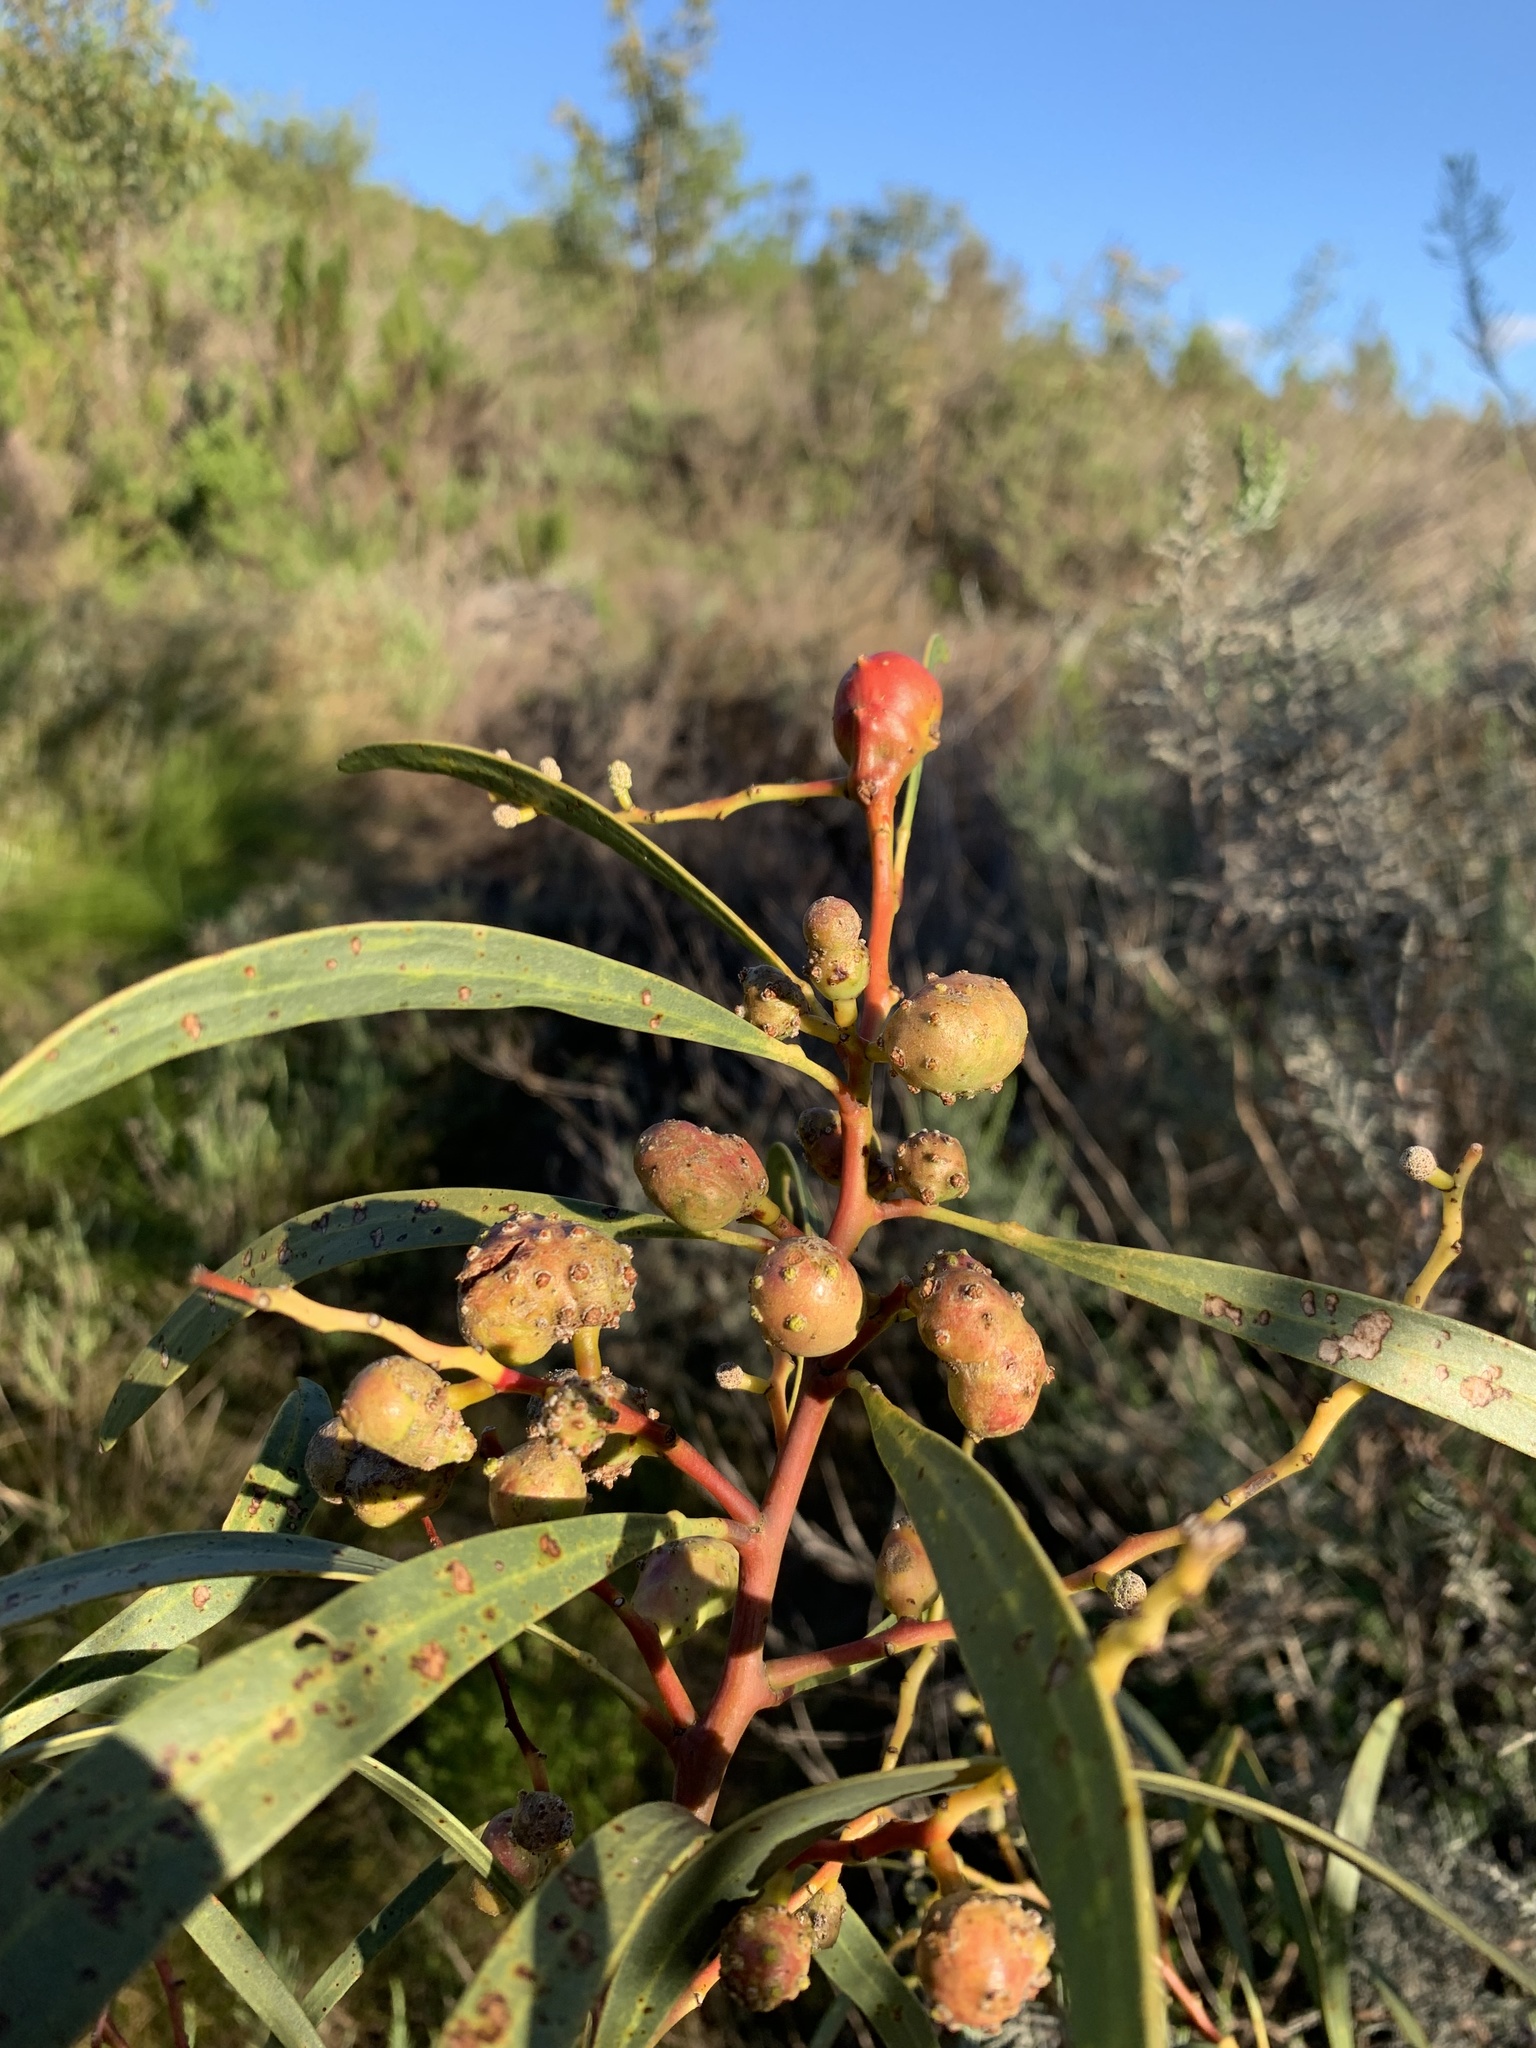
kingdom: Animalia
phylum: Arthropoda
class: Insecta
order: Hymenoptera
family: Pteromalidae
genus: Trichilogaster
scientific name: Trichilogaster signiventris
